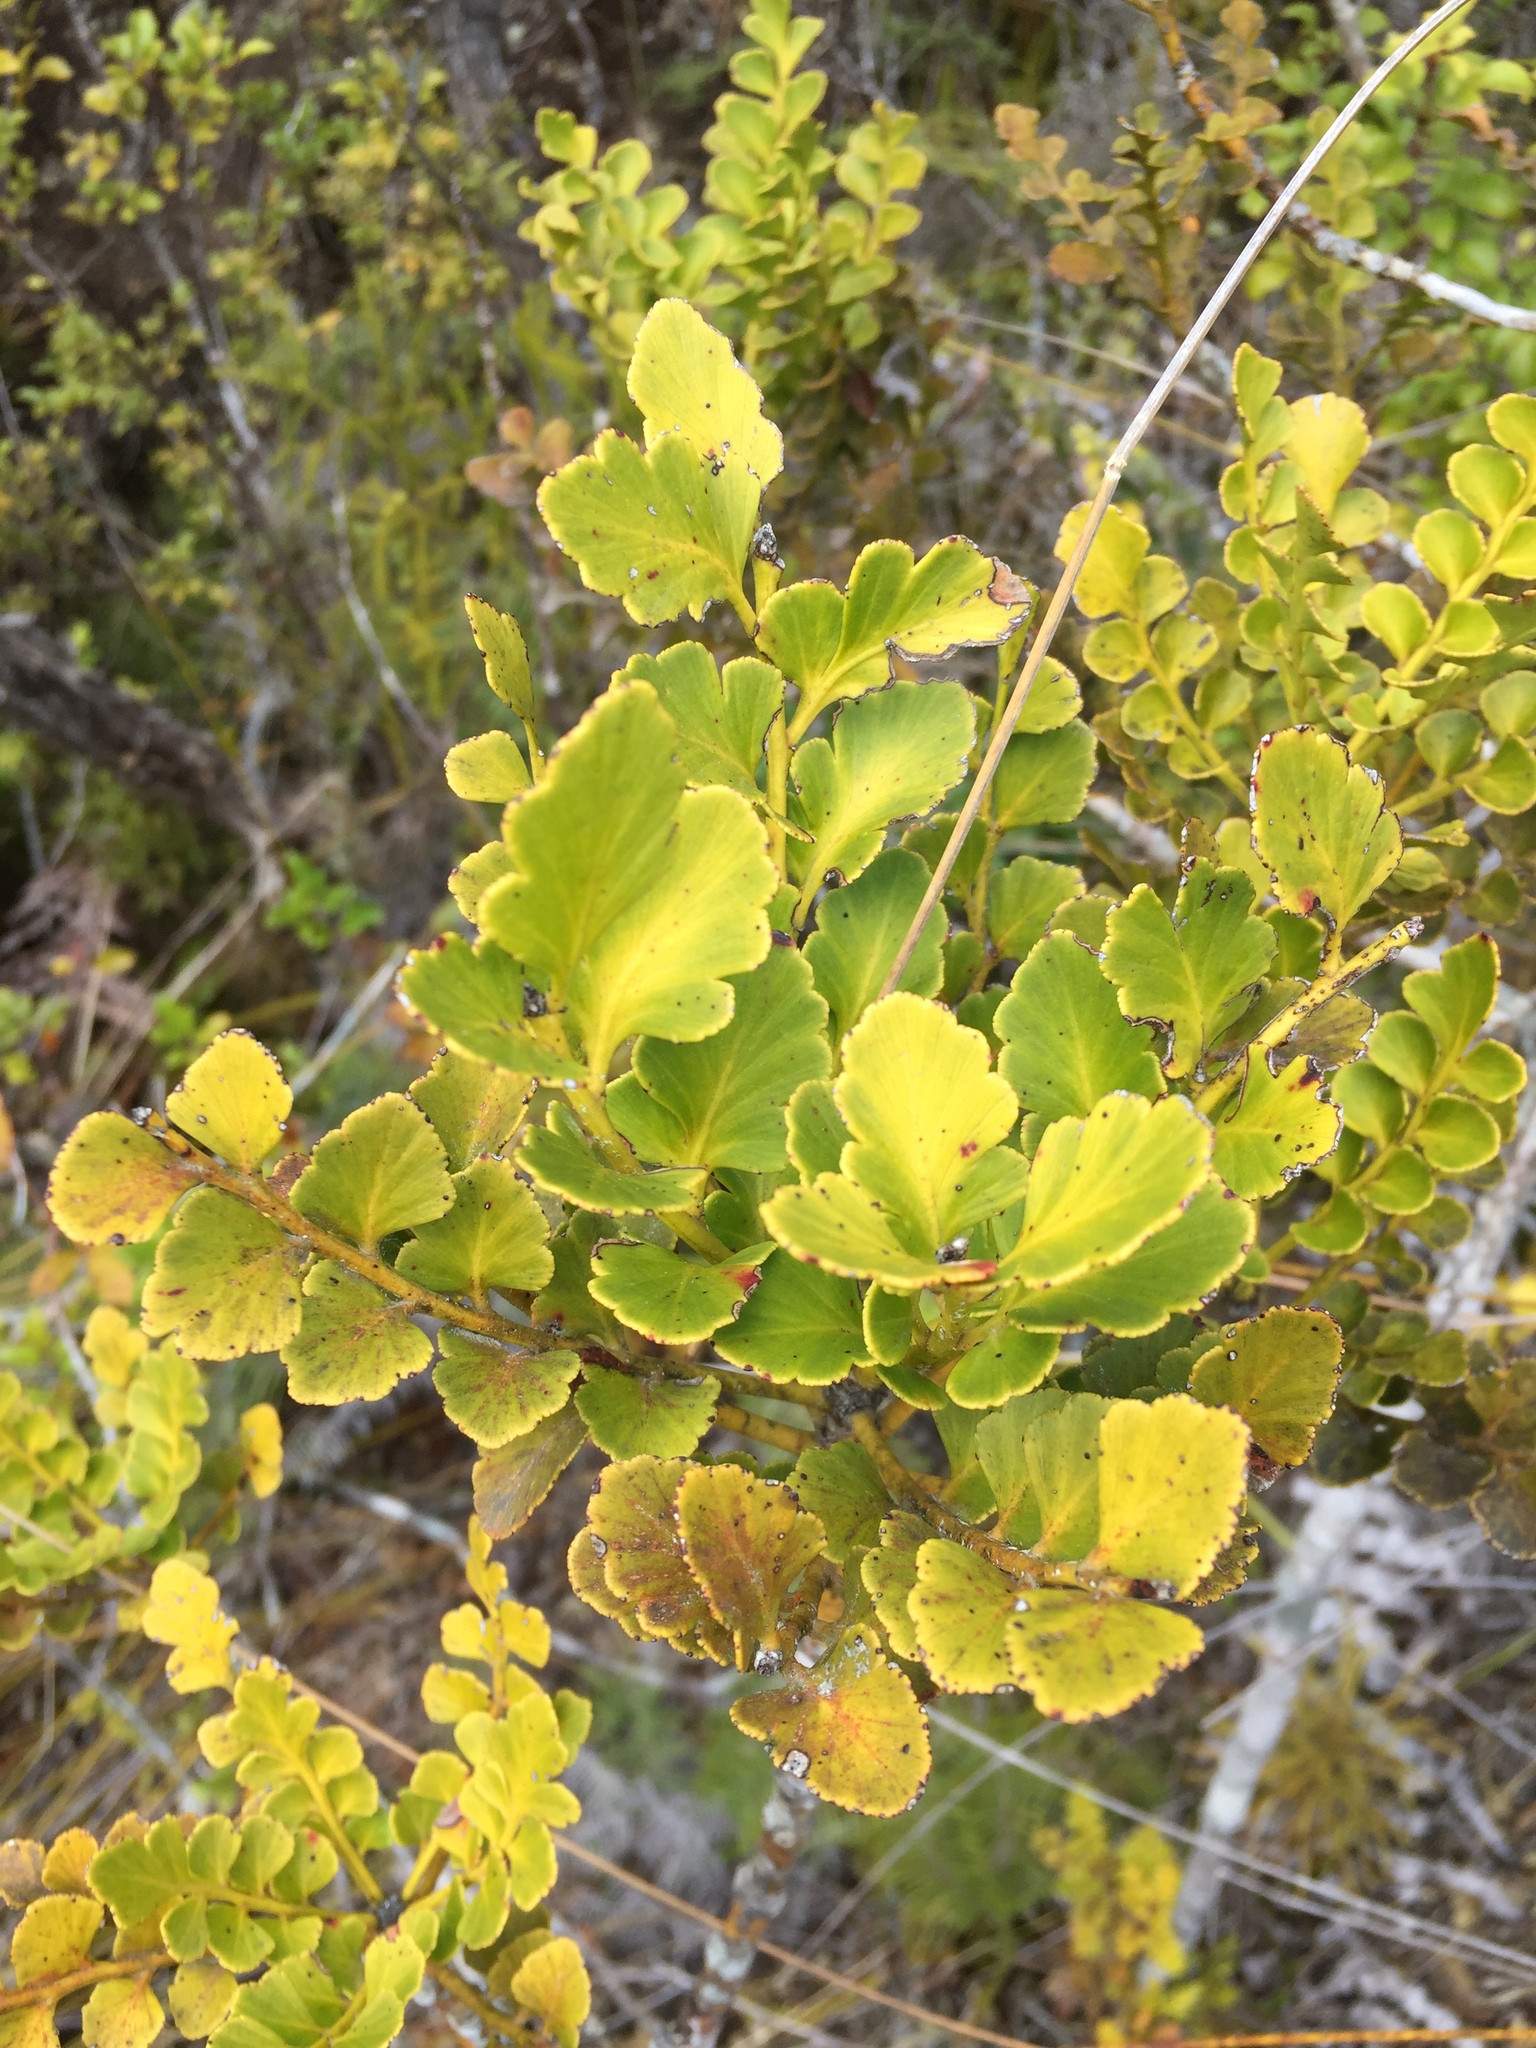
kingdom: Plantae
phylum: Tracheophyta
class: Pinopsida
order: Pinales
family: Phyllocladaceae
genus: Phyllocladus
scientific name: Phyllocladus toatoa
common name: Celery-top pine
